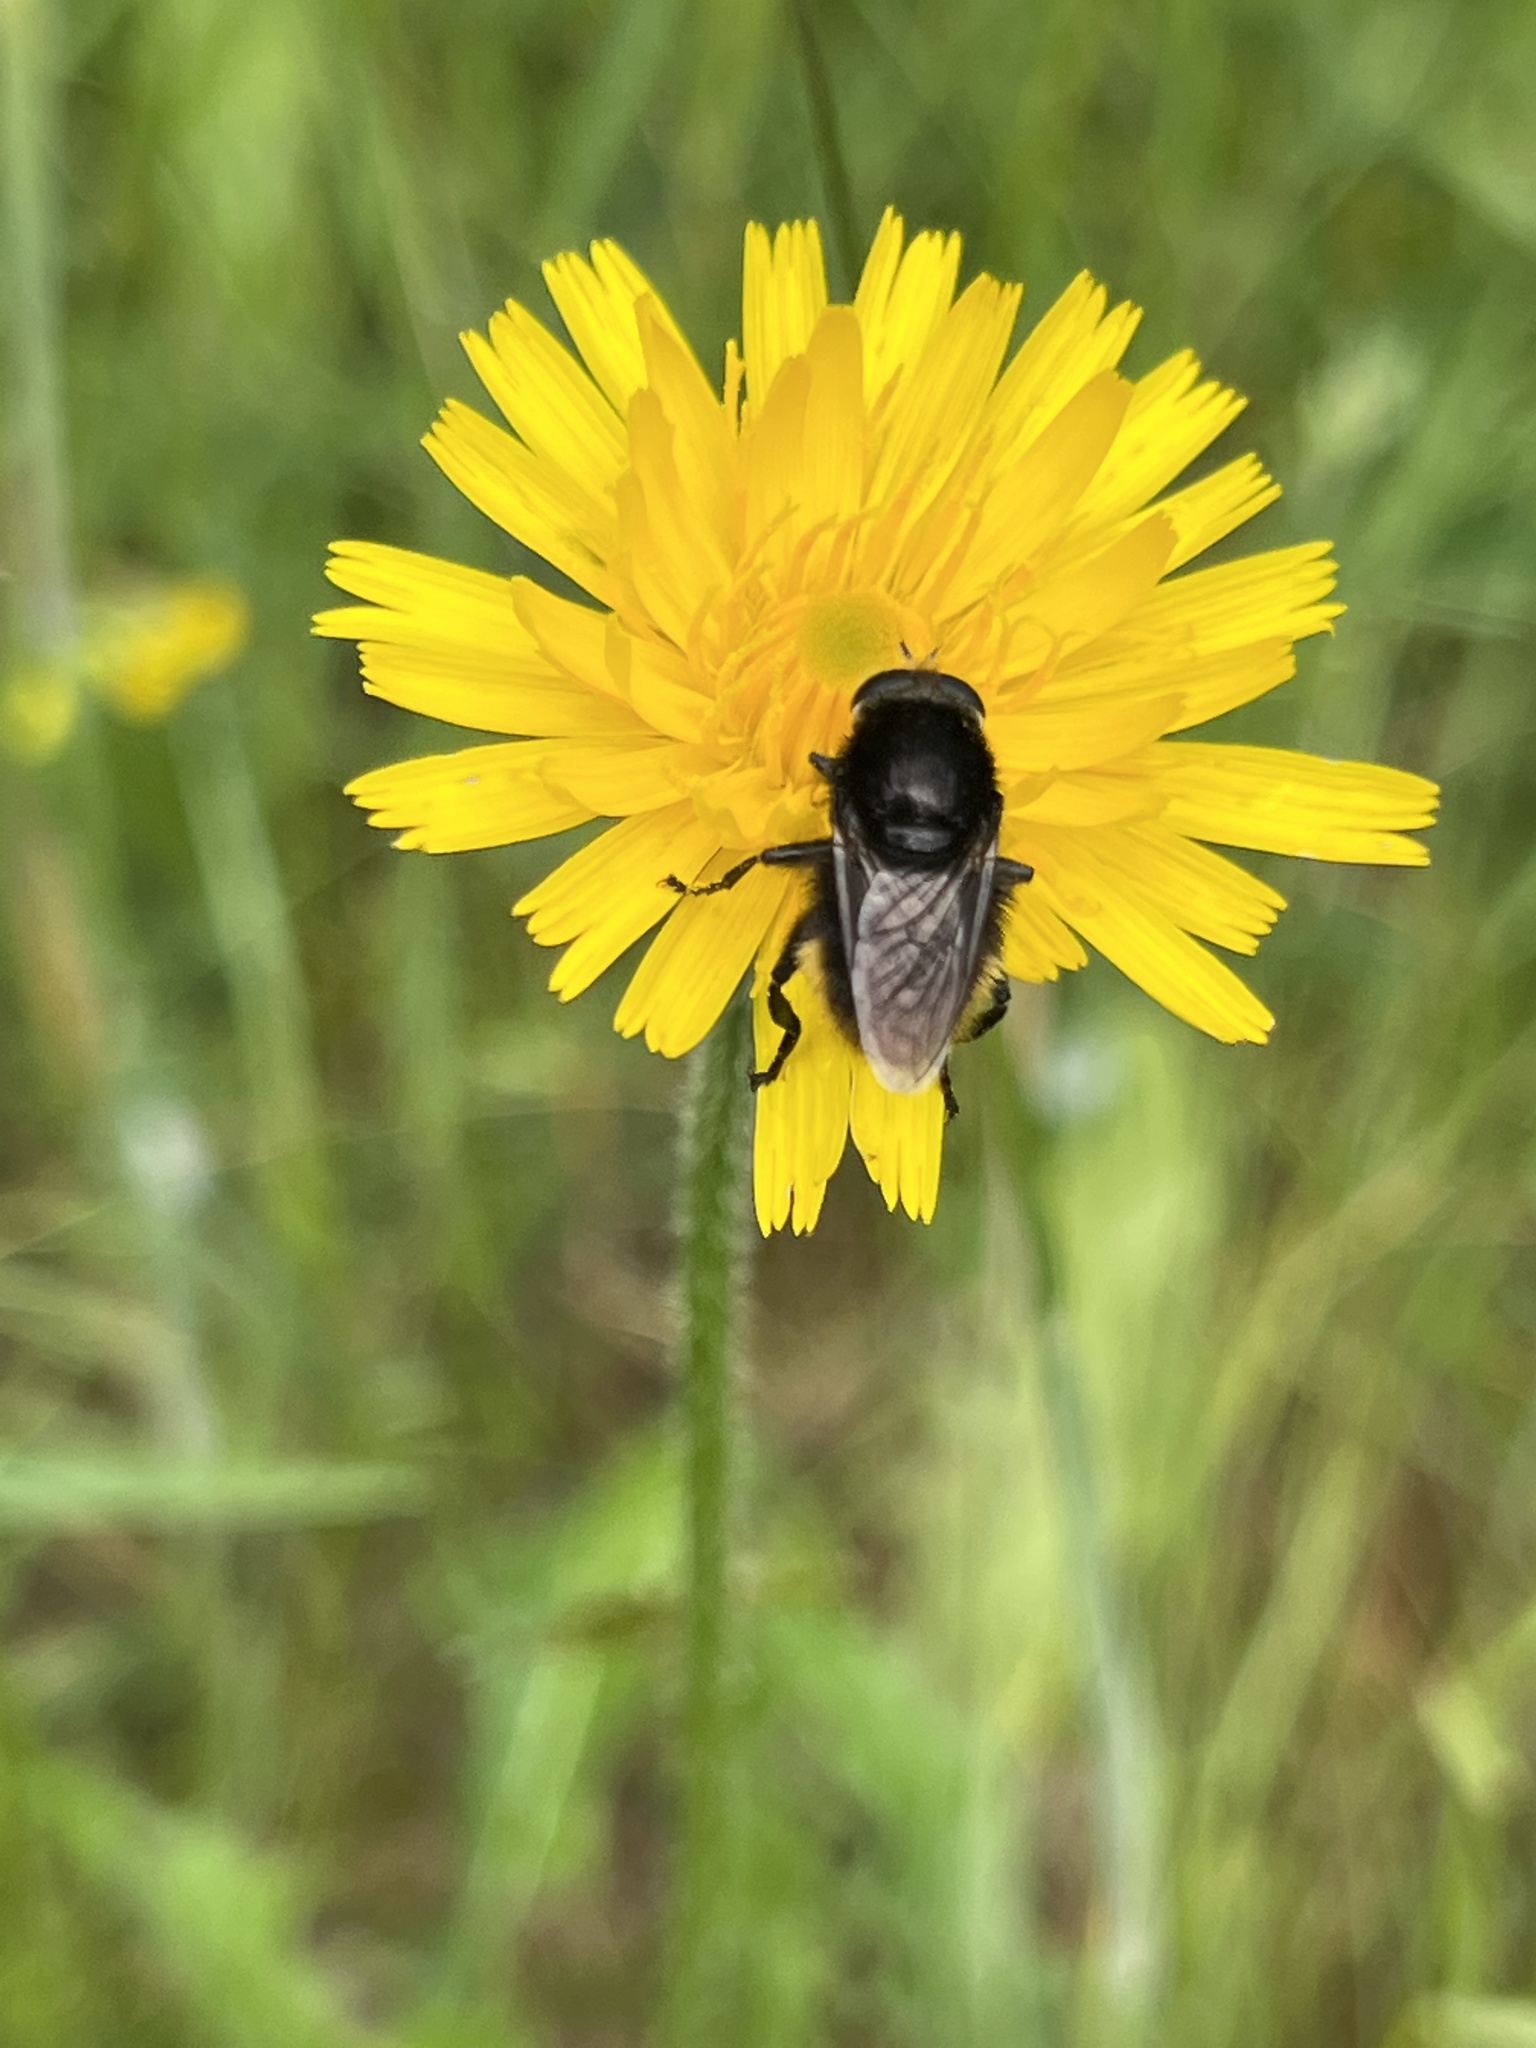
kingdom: Animalia
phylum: Arthropoda
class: Insecta
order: Diptera
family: Syrphidae
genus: Merodon
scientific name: Merodon equestris
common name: Greater bulb-fly
